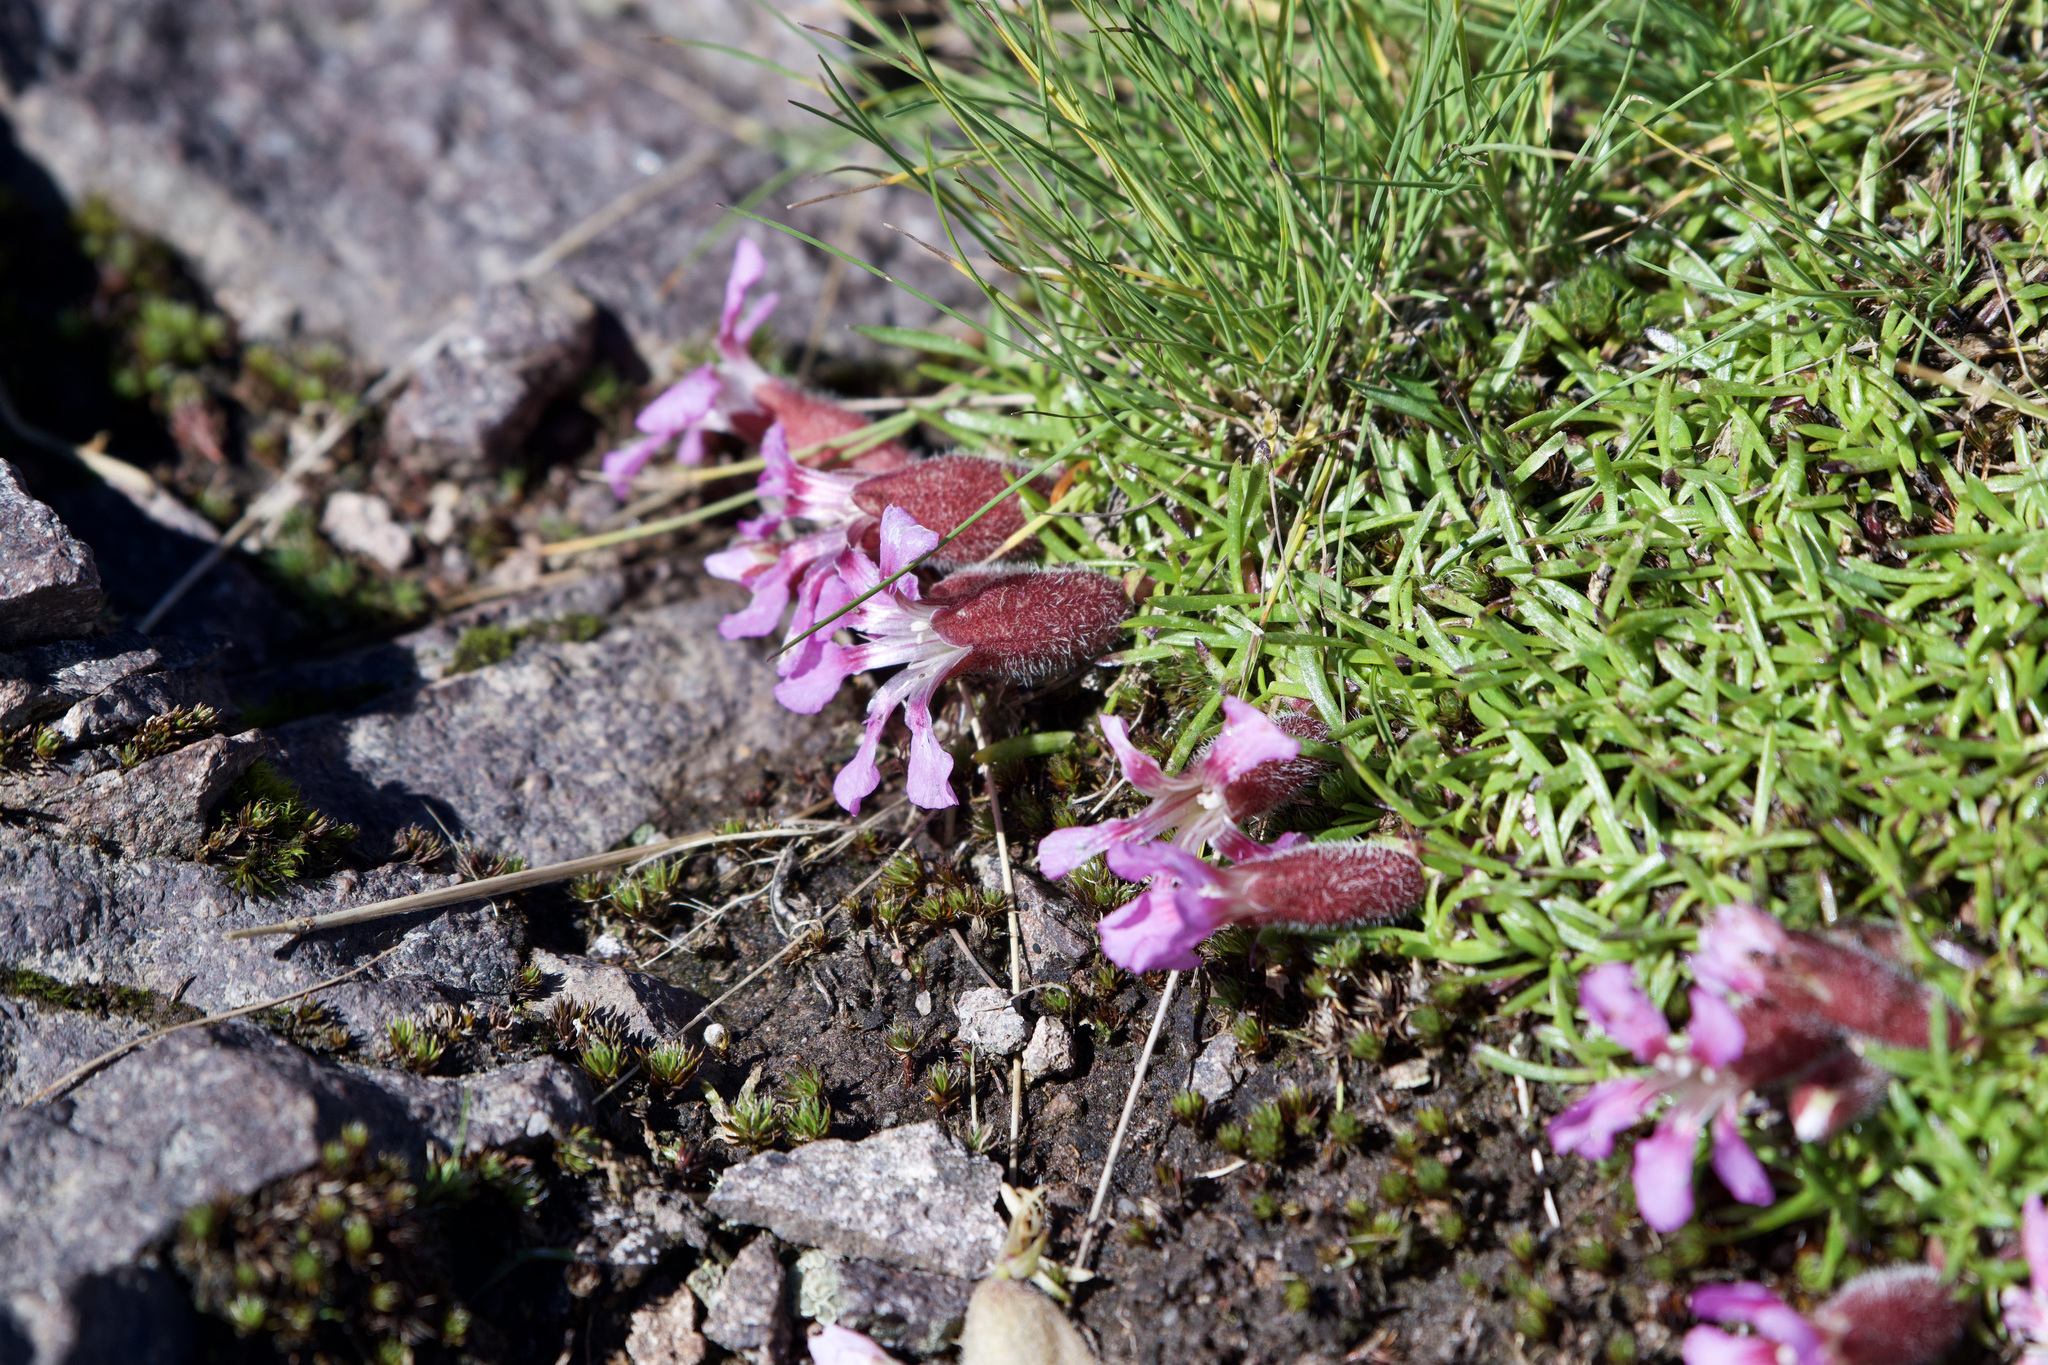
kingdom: Plantae
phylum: Tracheophyta
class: Magnoliopsida
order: Caryophyllales
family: Caryophyllaceae
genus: Saponaria
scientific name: Saponaria pumila
